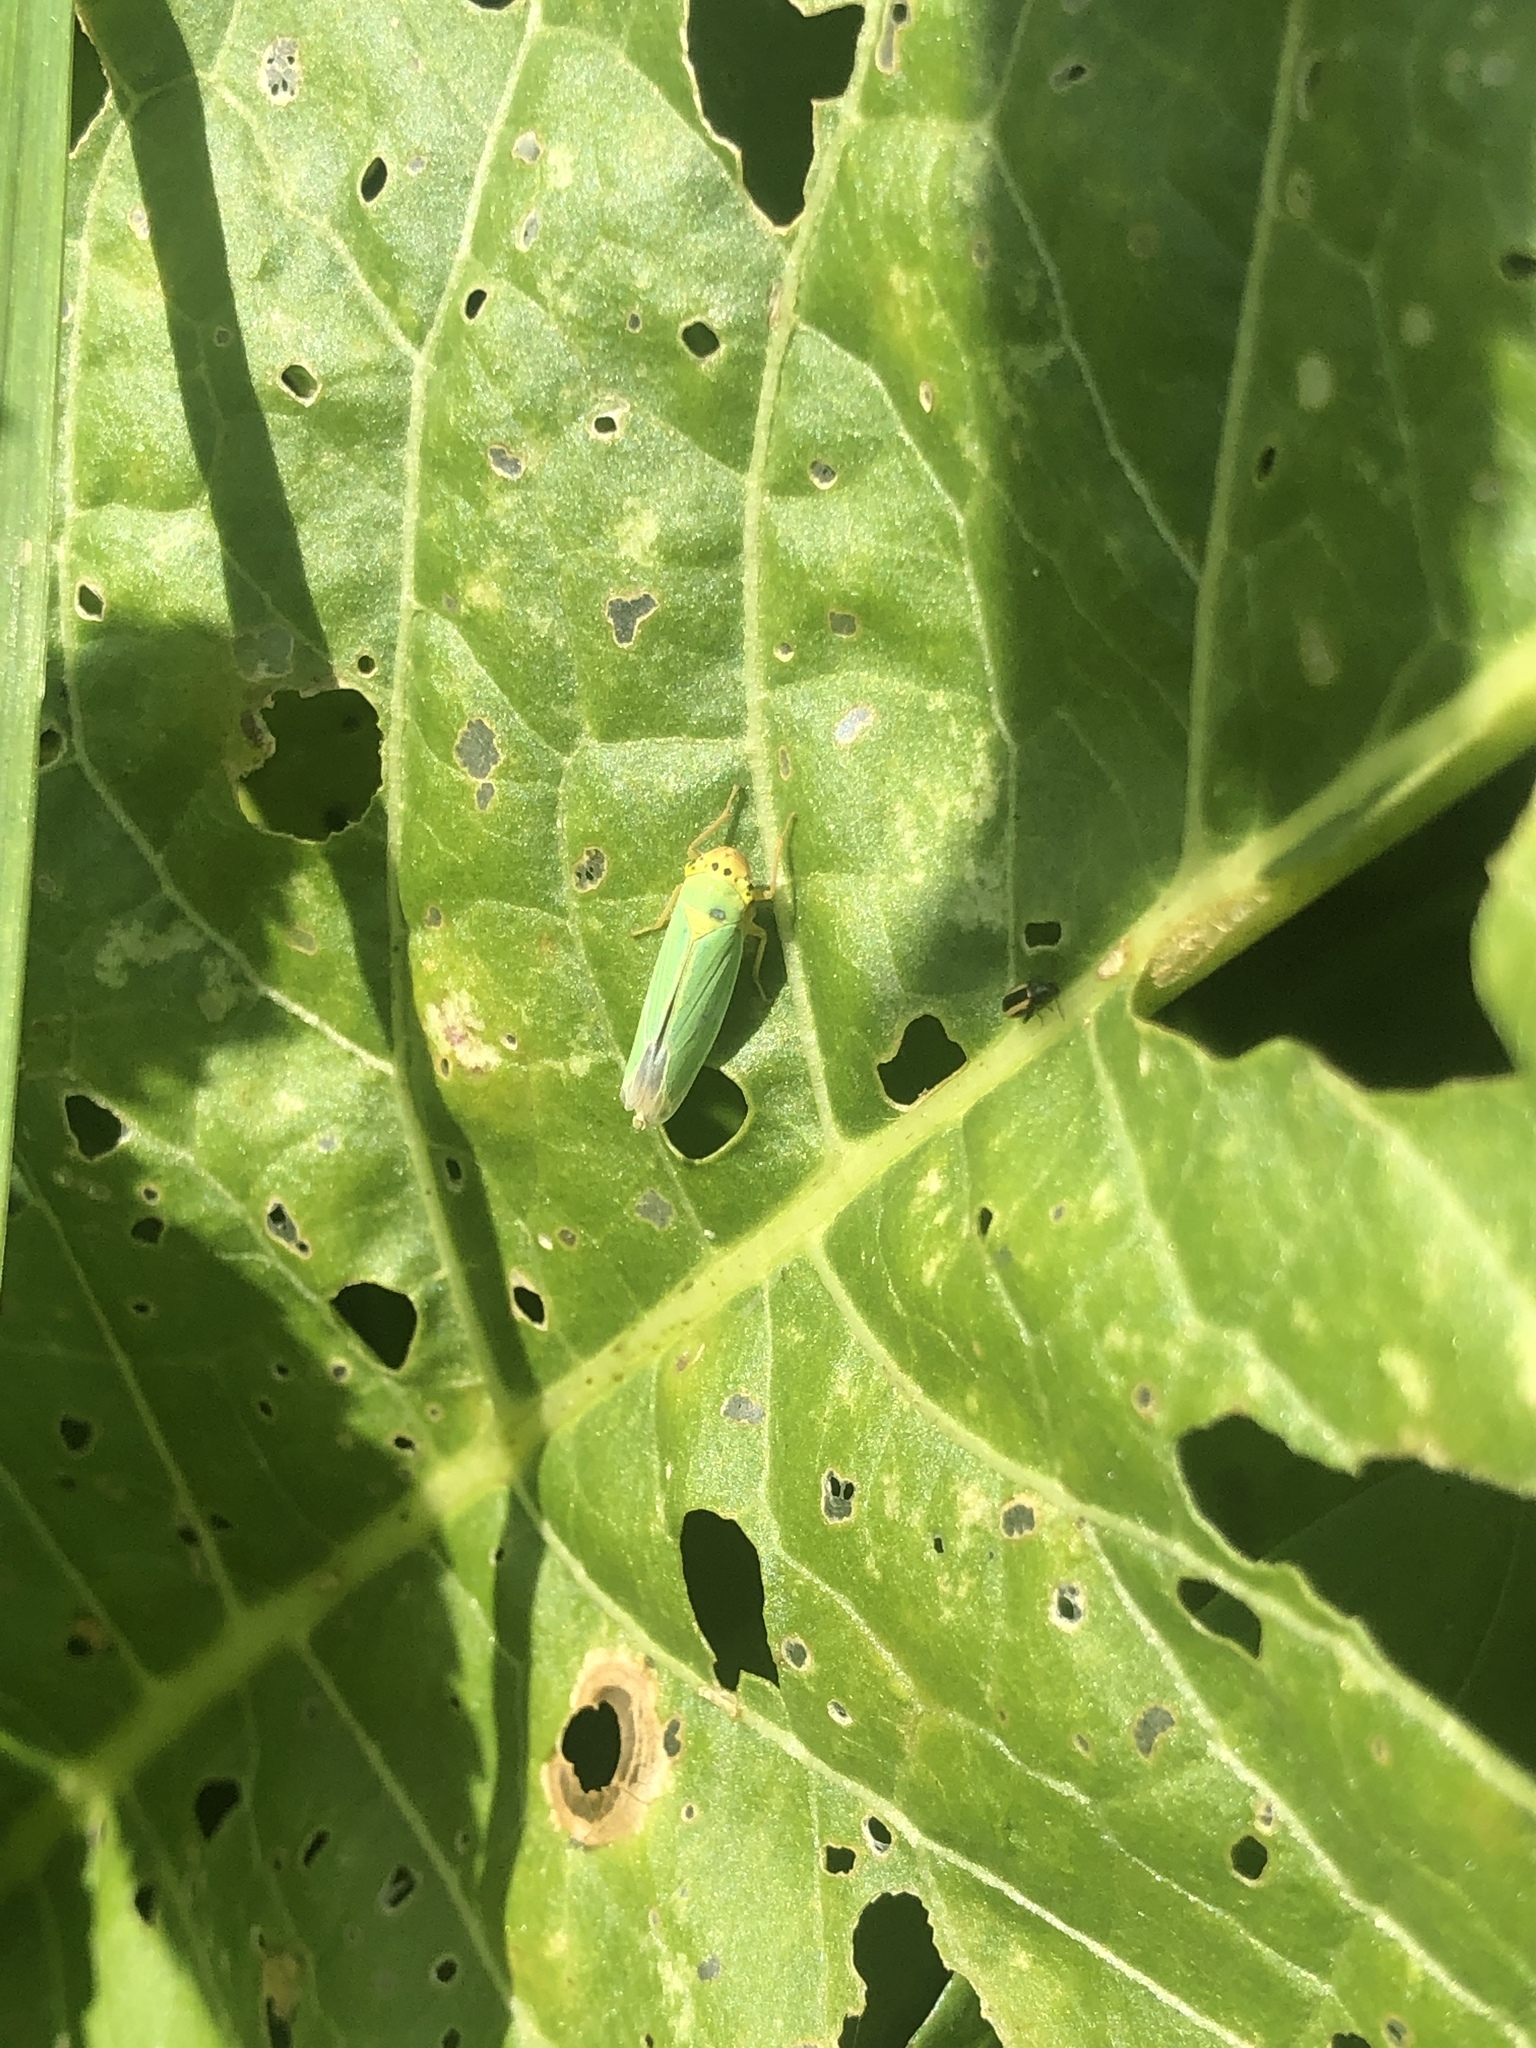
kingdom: Animalia
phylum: Arthropoda
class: Insecta
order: Hemiptera
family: Cicadellidae
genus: Cicadella
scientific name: Cicadella viridis
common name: Leafhopper
